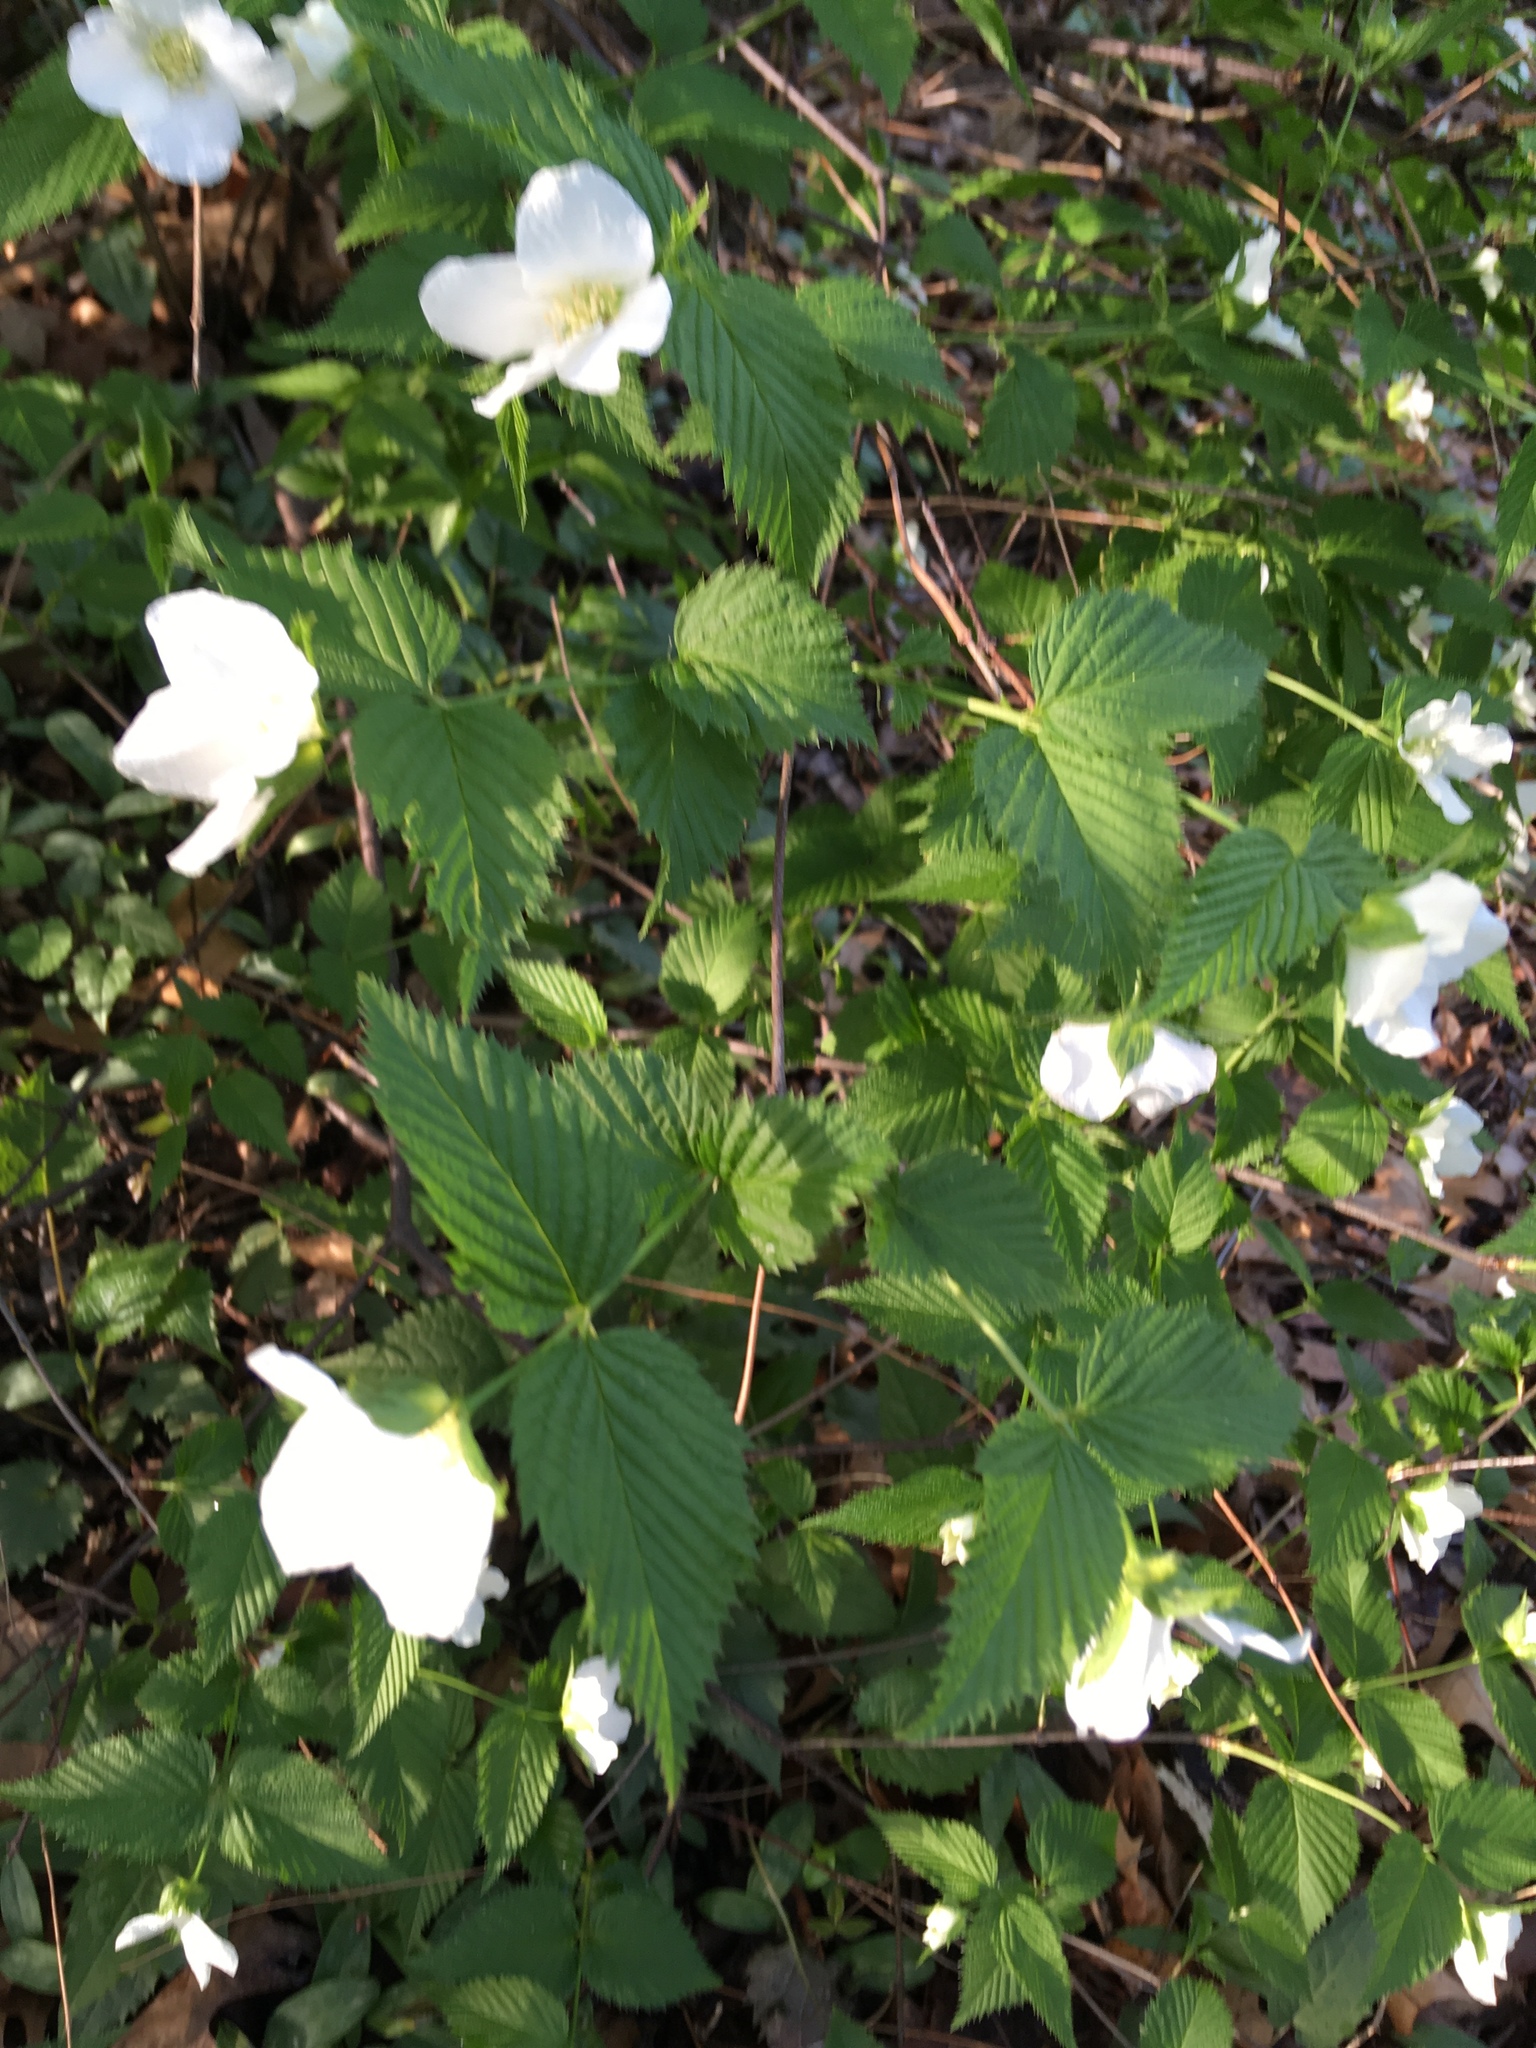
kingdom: Plantae
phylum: Tracheophyta
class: Magnoliopsida
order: Rosales
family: Rosaceae
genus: Rhodotypos
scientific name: Rhodotypos scandens
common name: Jetbead
